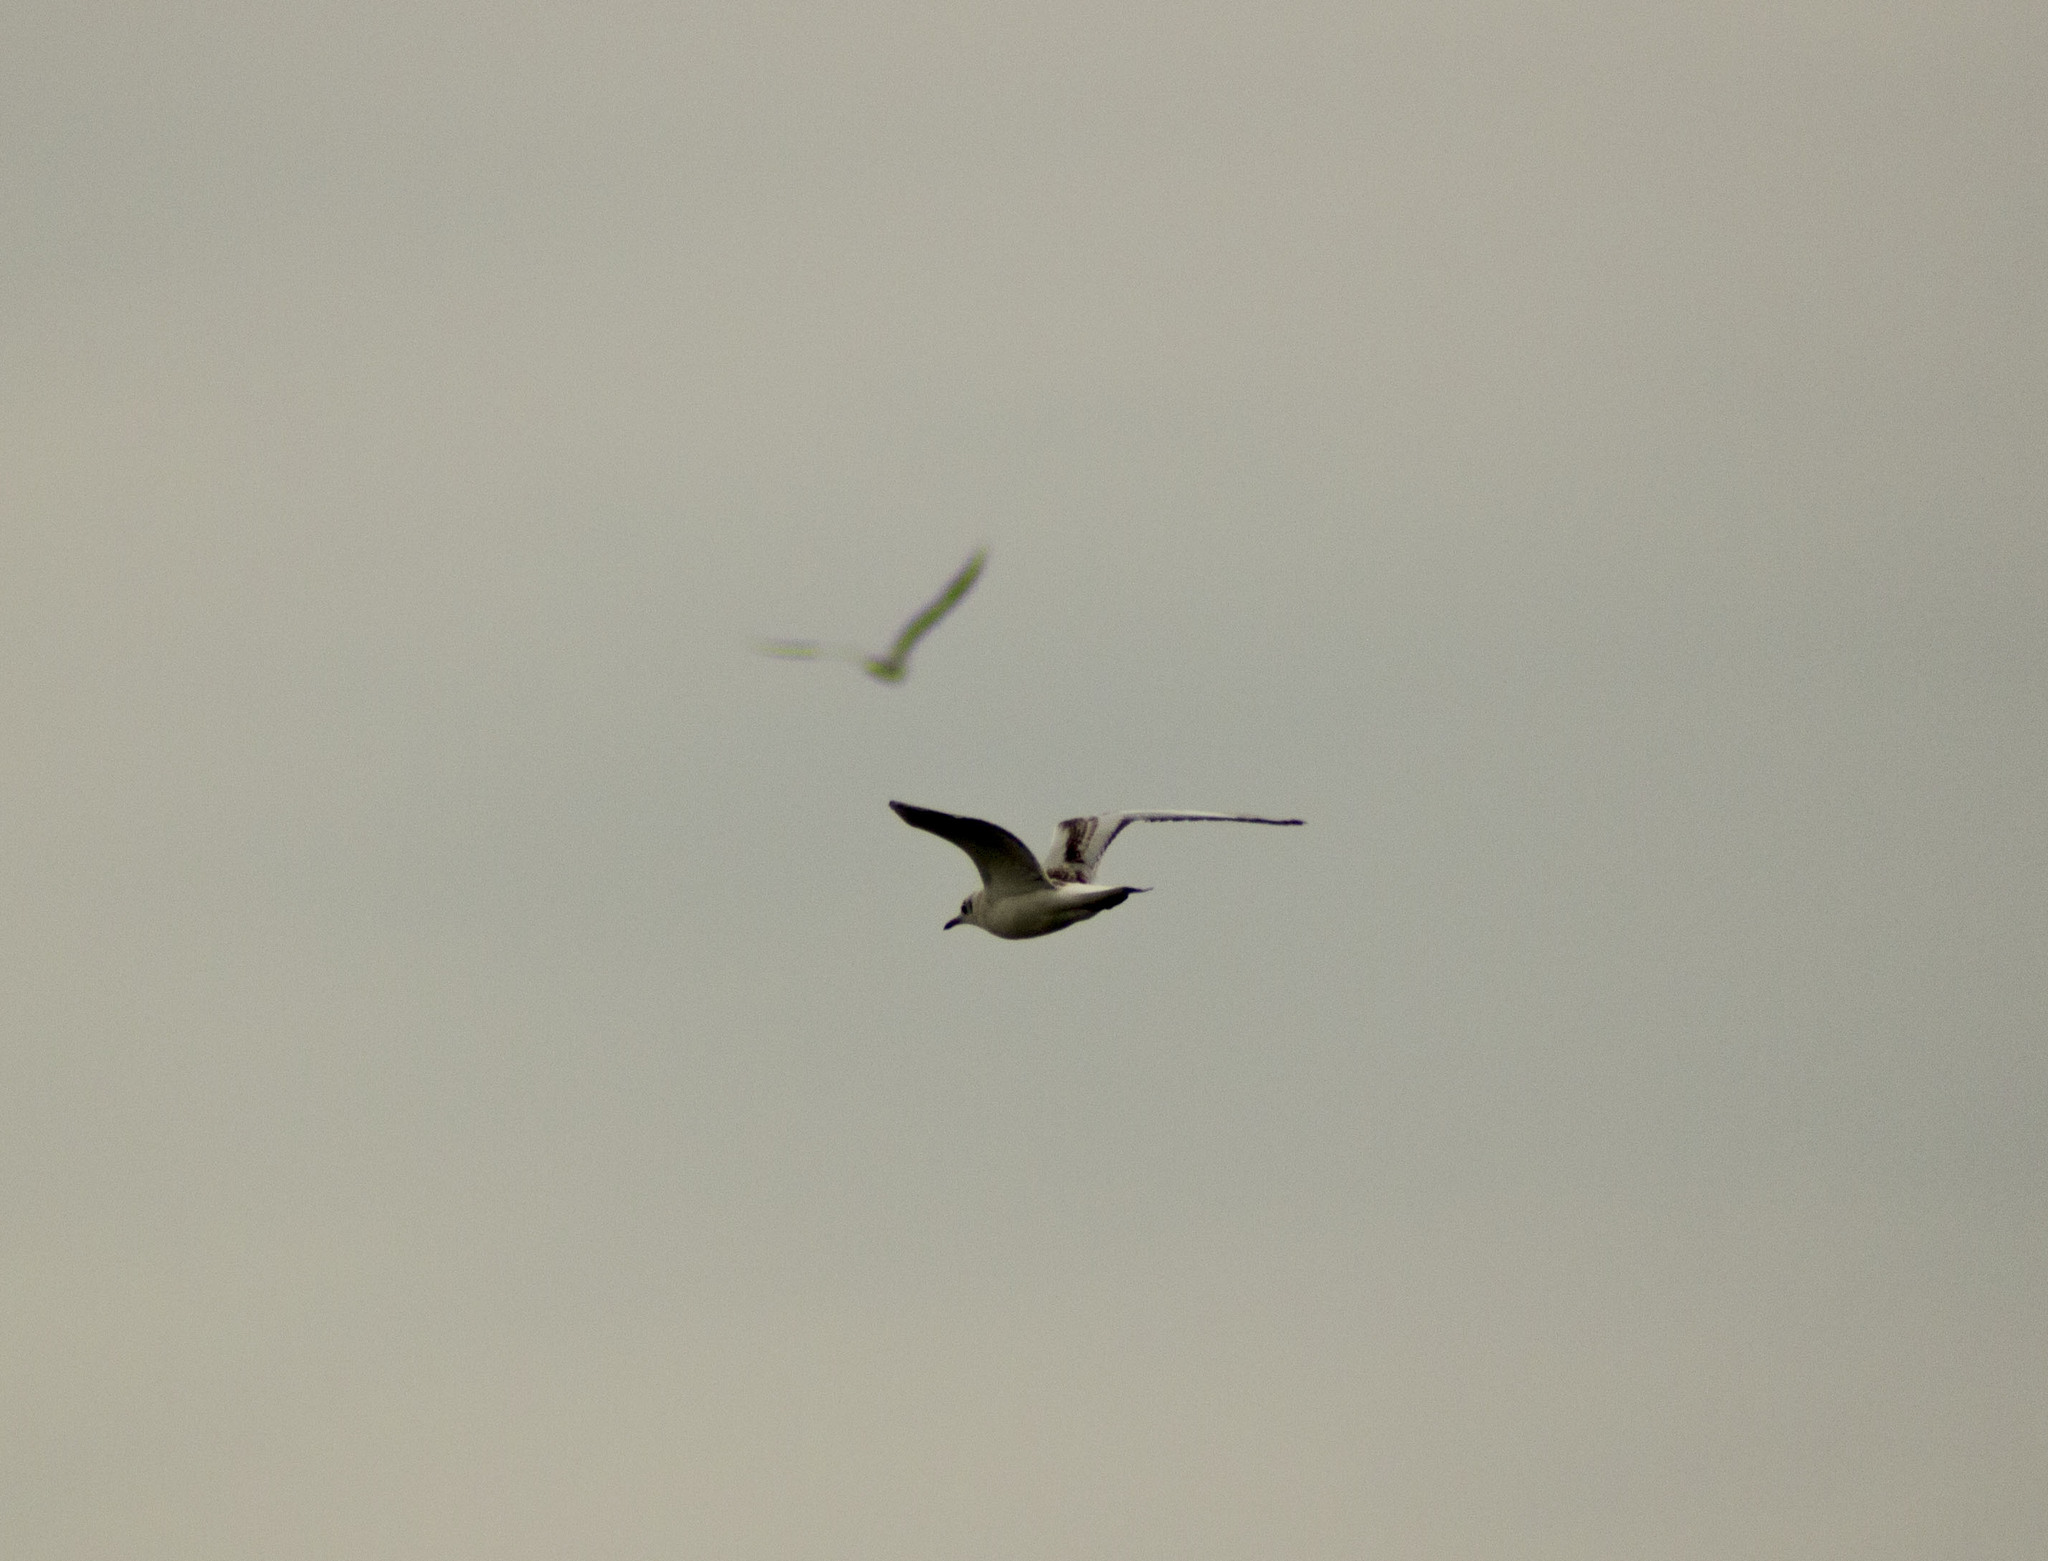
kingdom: Animalia
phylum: Chordata
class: Aves
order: Charadriiformes
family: Laridae
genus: Chroicocephalus
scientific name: Chroicocephalus ridibundus
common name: Black-headed gull
